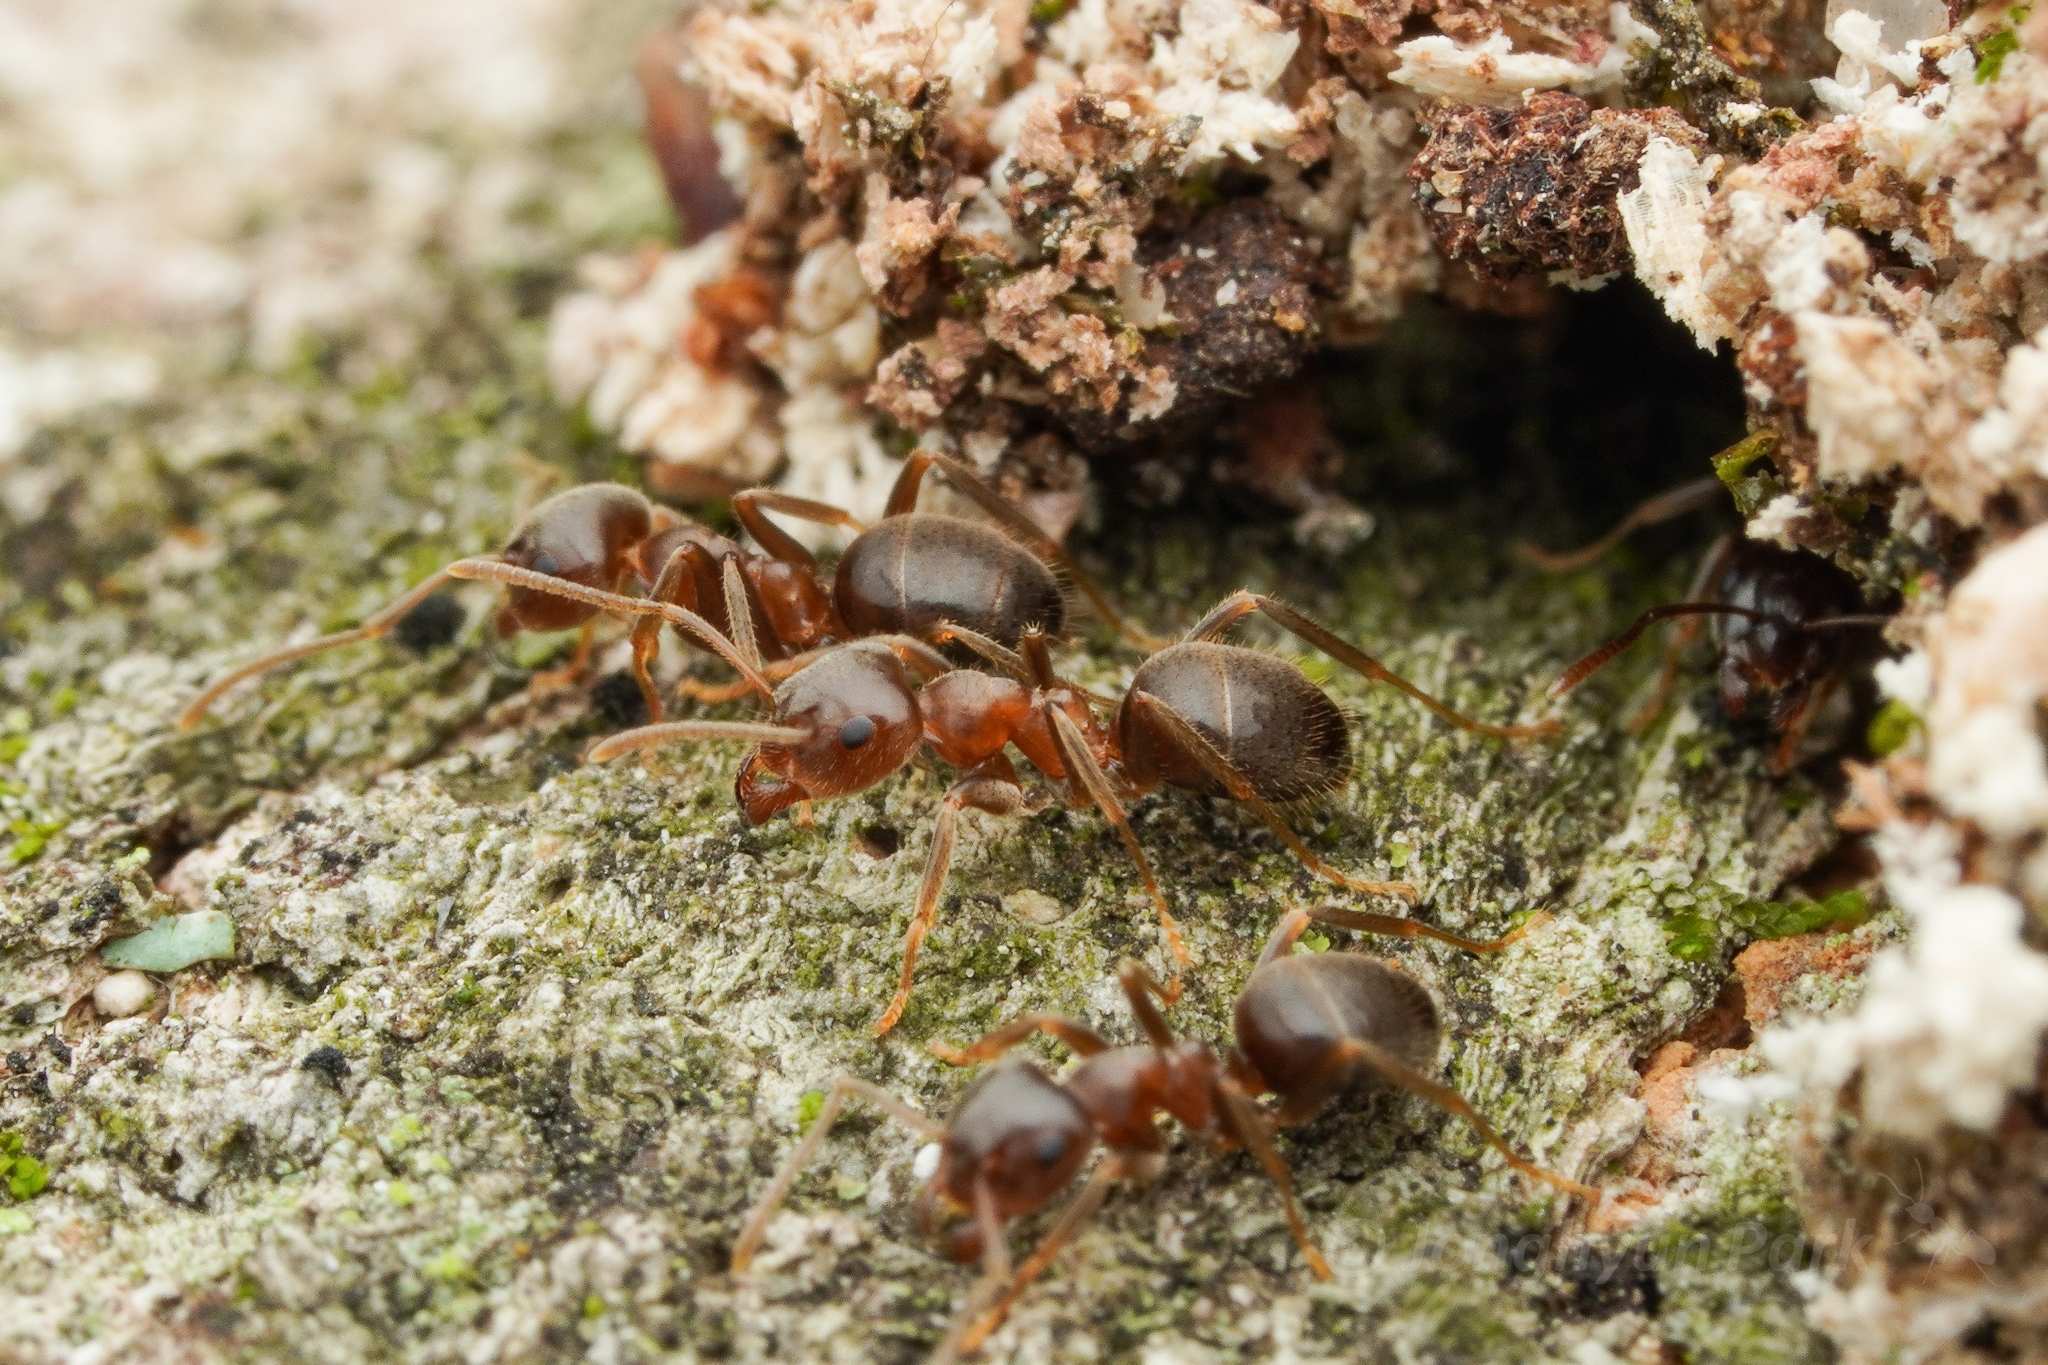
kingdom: Animalia
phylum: Arthropoda
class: Insecta
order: Hymenoptera
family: Formicidae
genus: Lasius
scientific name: Lasius hayashi
